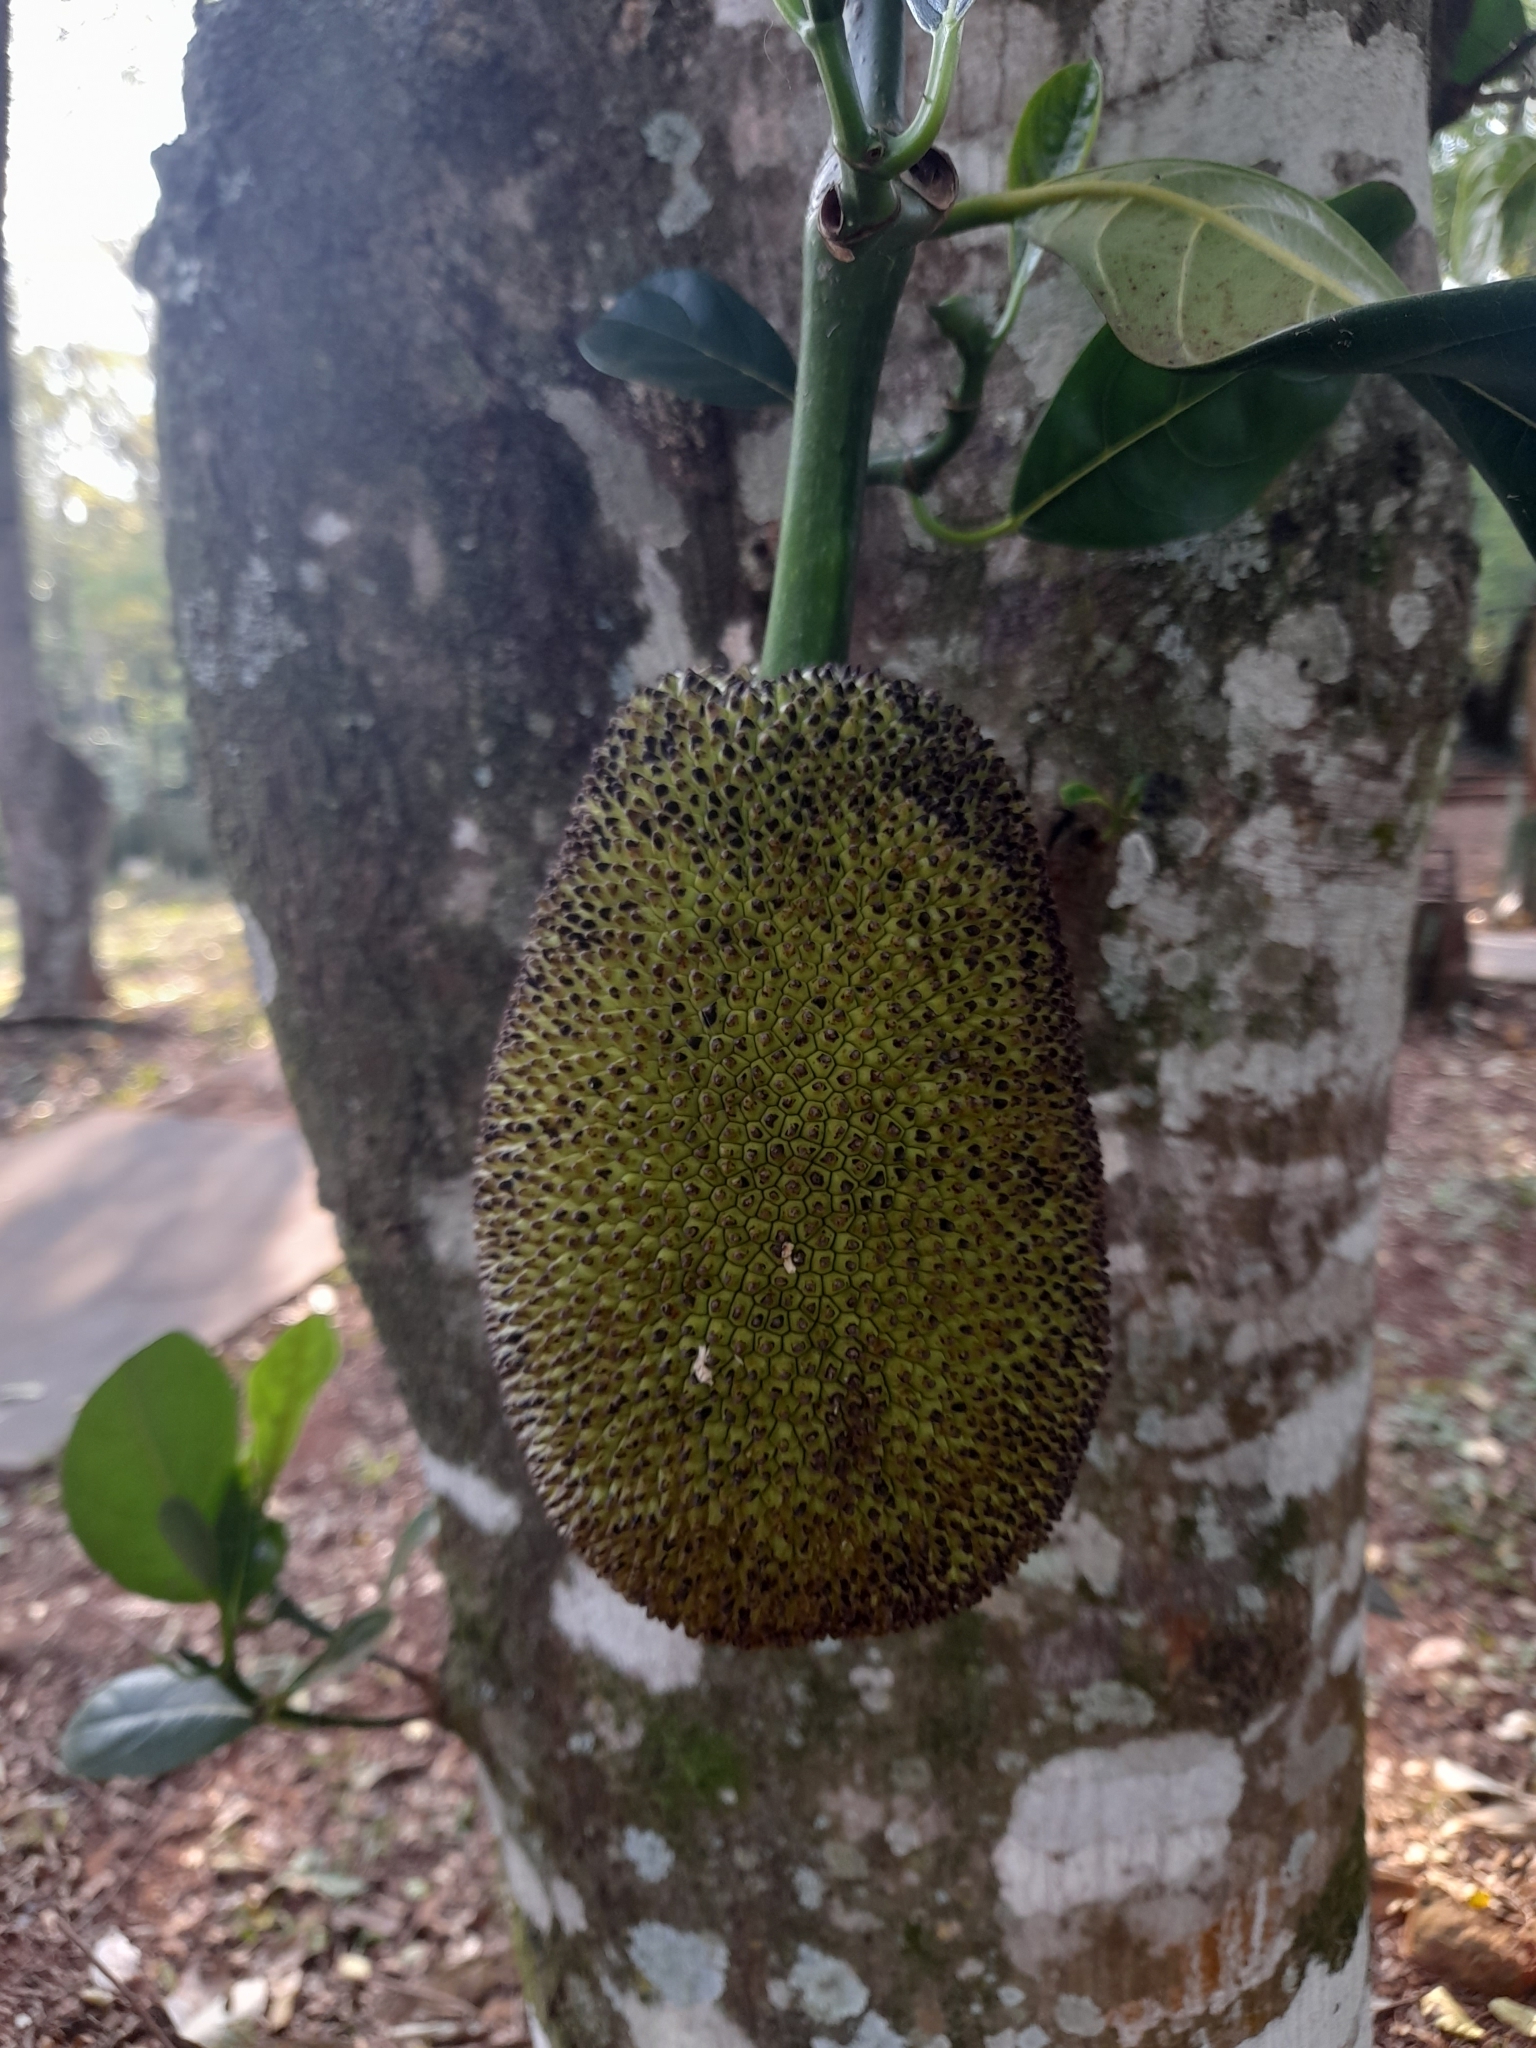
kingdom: Plantae
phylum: Tracheophyta
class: Magnoliopsida
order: Rosales
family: Moraceae
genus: Artocarpus
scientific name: Artocarpus heterophyllus
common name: Jackfruit
